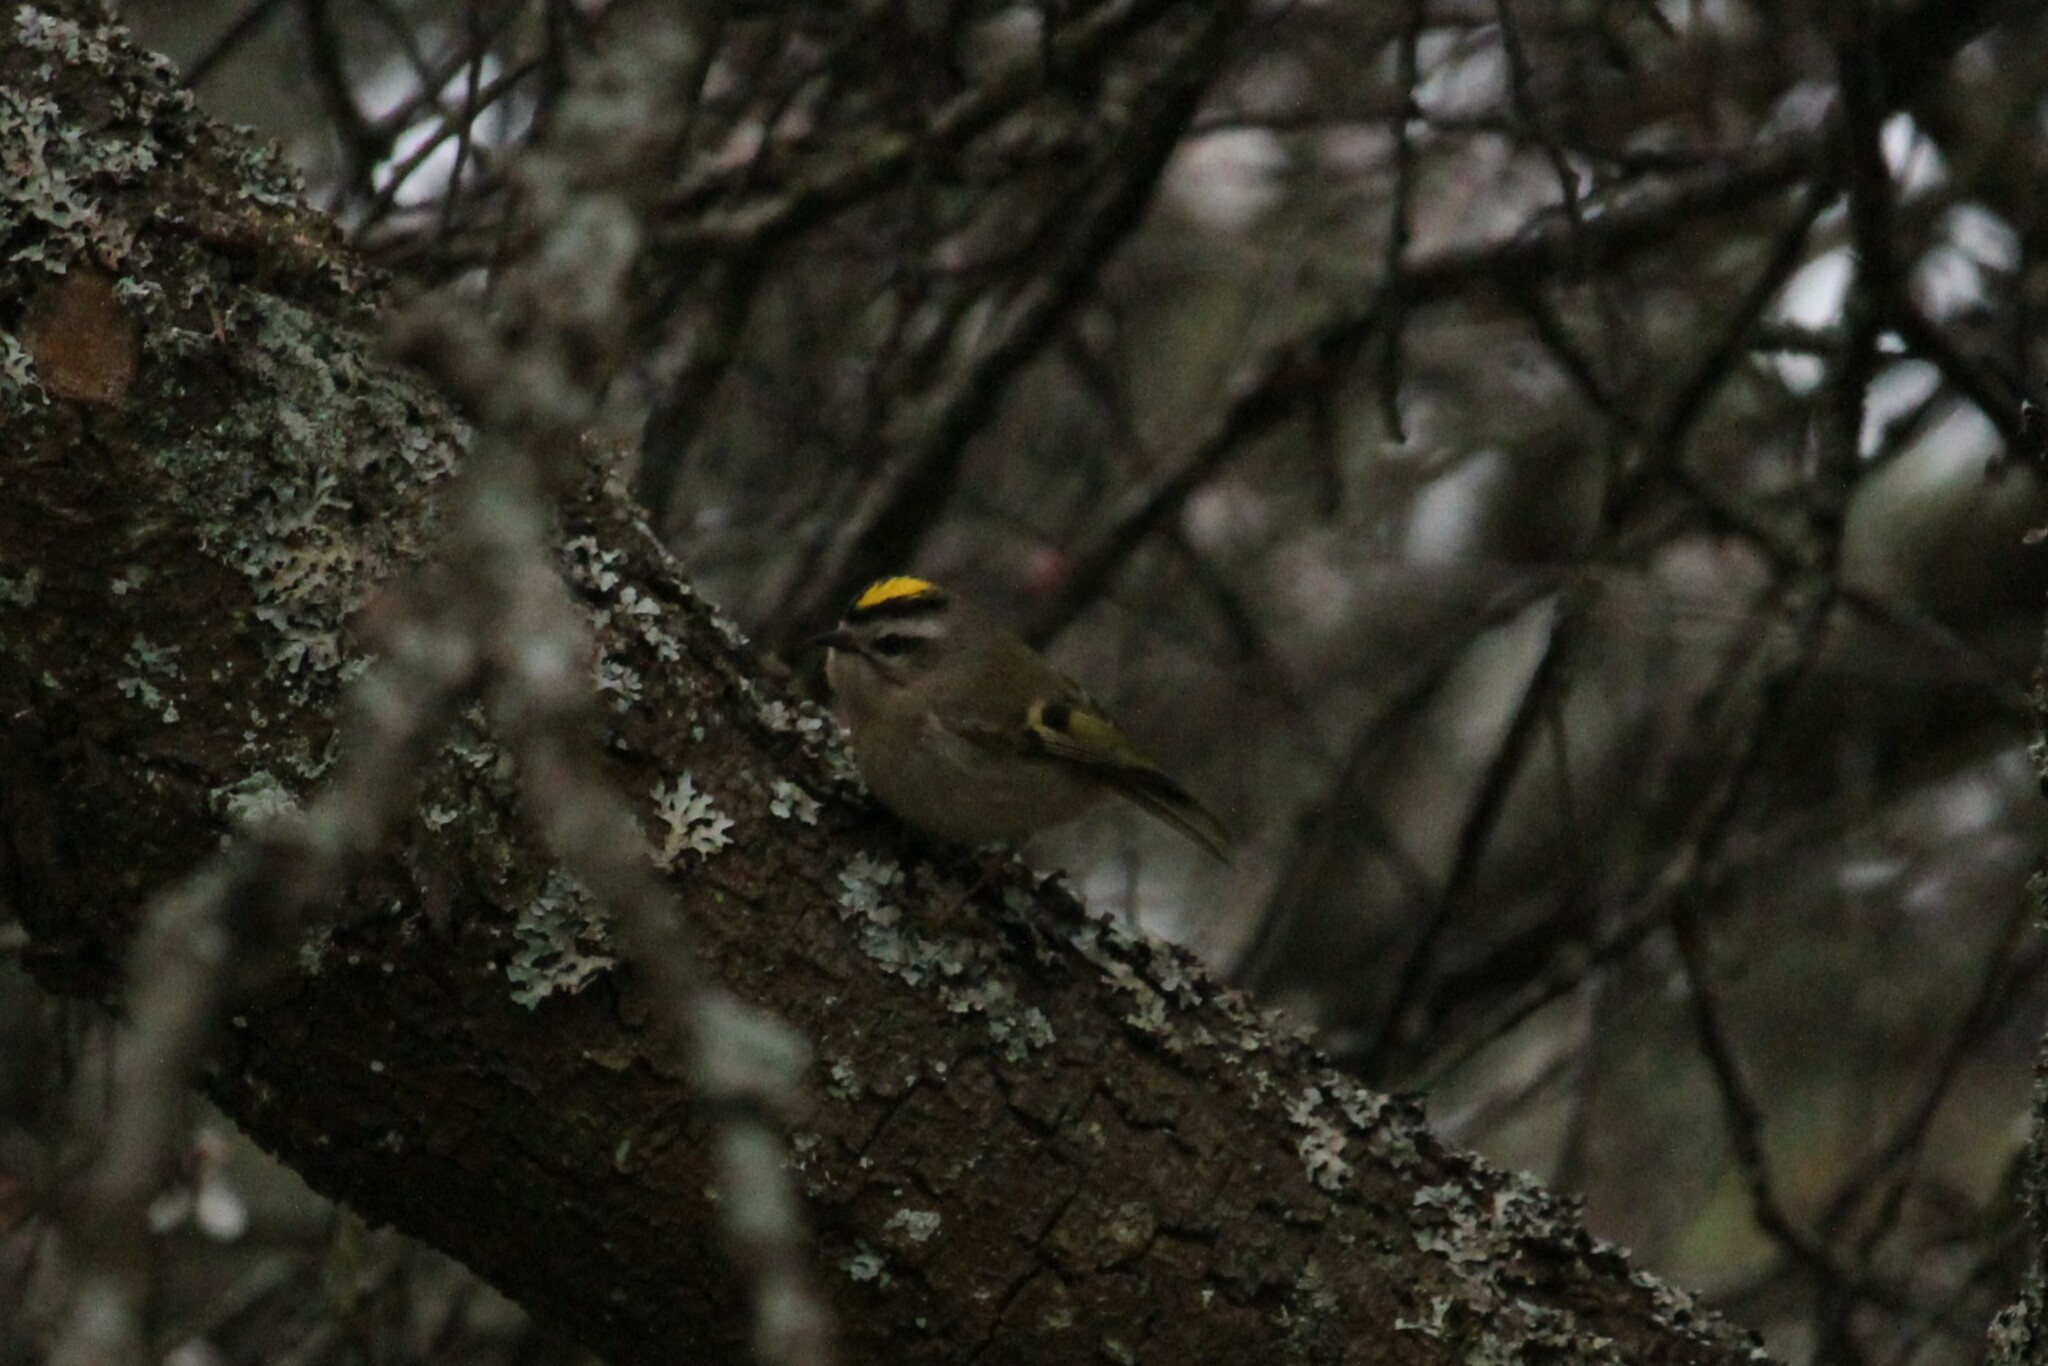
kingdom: Animalia
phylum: Chordata
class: Aves
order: Passeriformes
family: Regulidae
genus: Regulus
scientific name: Regulus satrapa
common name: Golden-crowned kinglet
